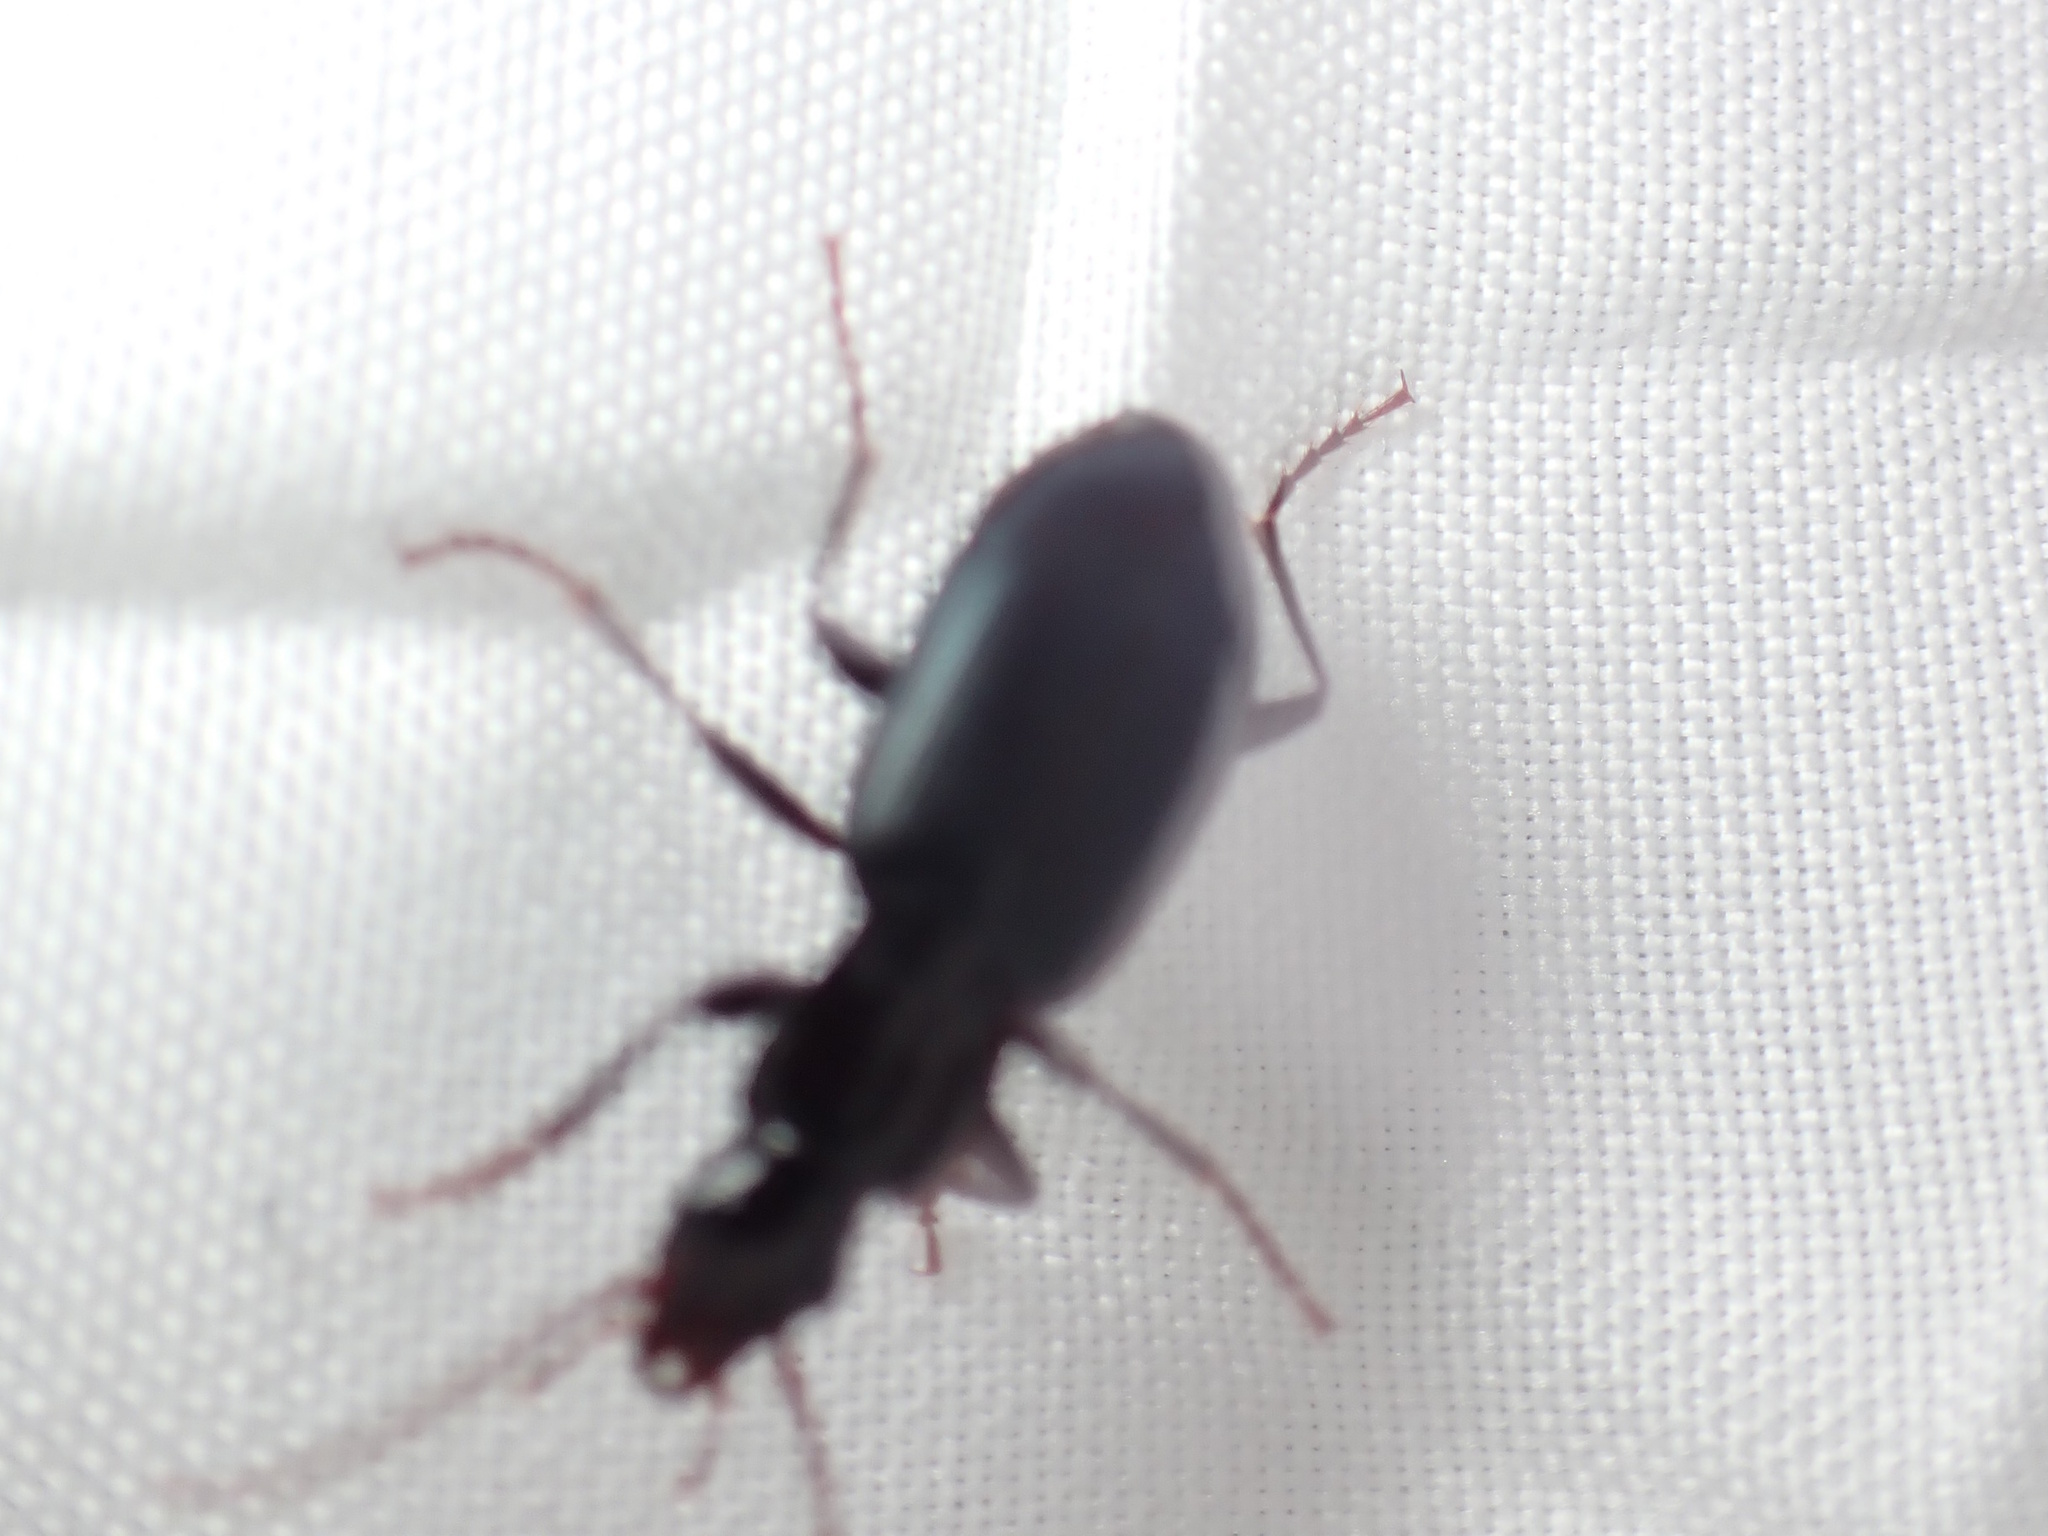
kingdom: Animalia
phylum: Arthropoda
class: Insecta
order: Coleoptera
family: Carabidae
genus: Laemostenus
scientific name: Laemostenus complanatus
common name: Cosmopolitan ground beetle
